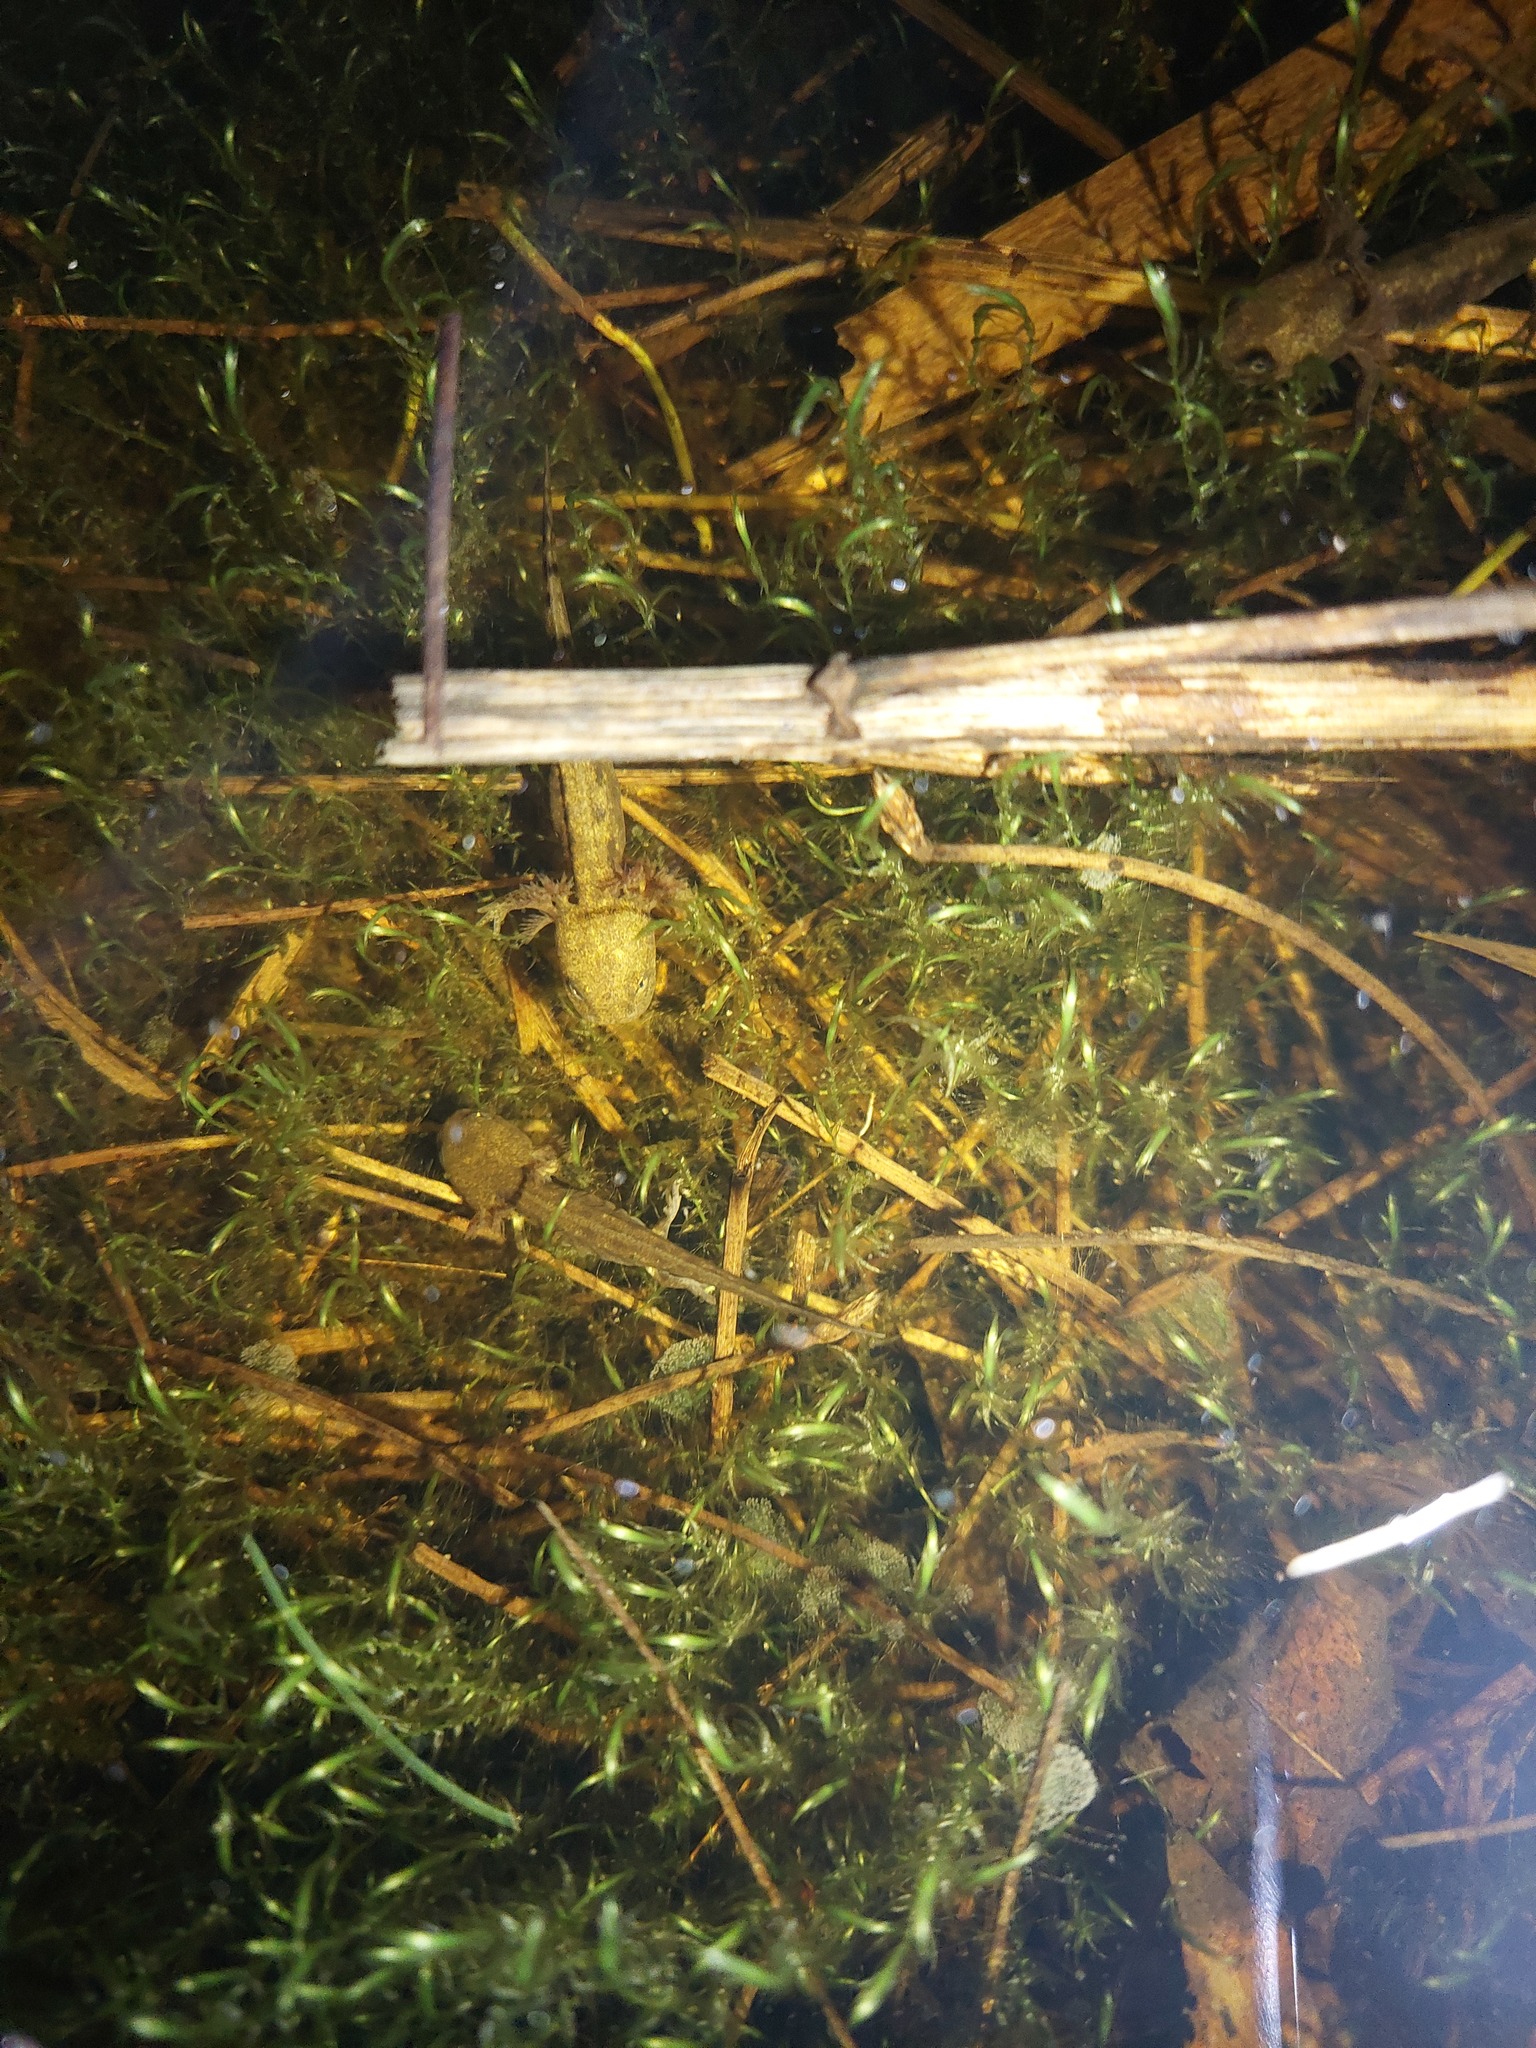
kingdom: Animalia
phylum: Chordata
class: Amphibia
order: Caudata
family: Salamandridae
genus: Salamandra
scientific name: Salamandra salamandra
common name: Fire salamander
